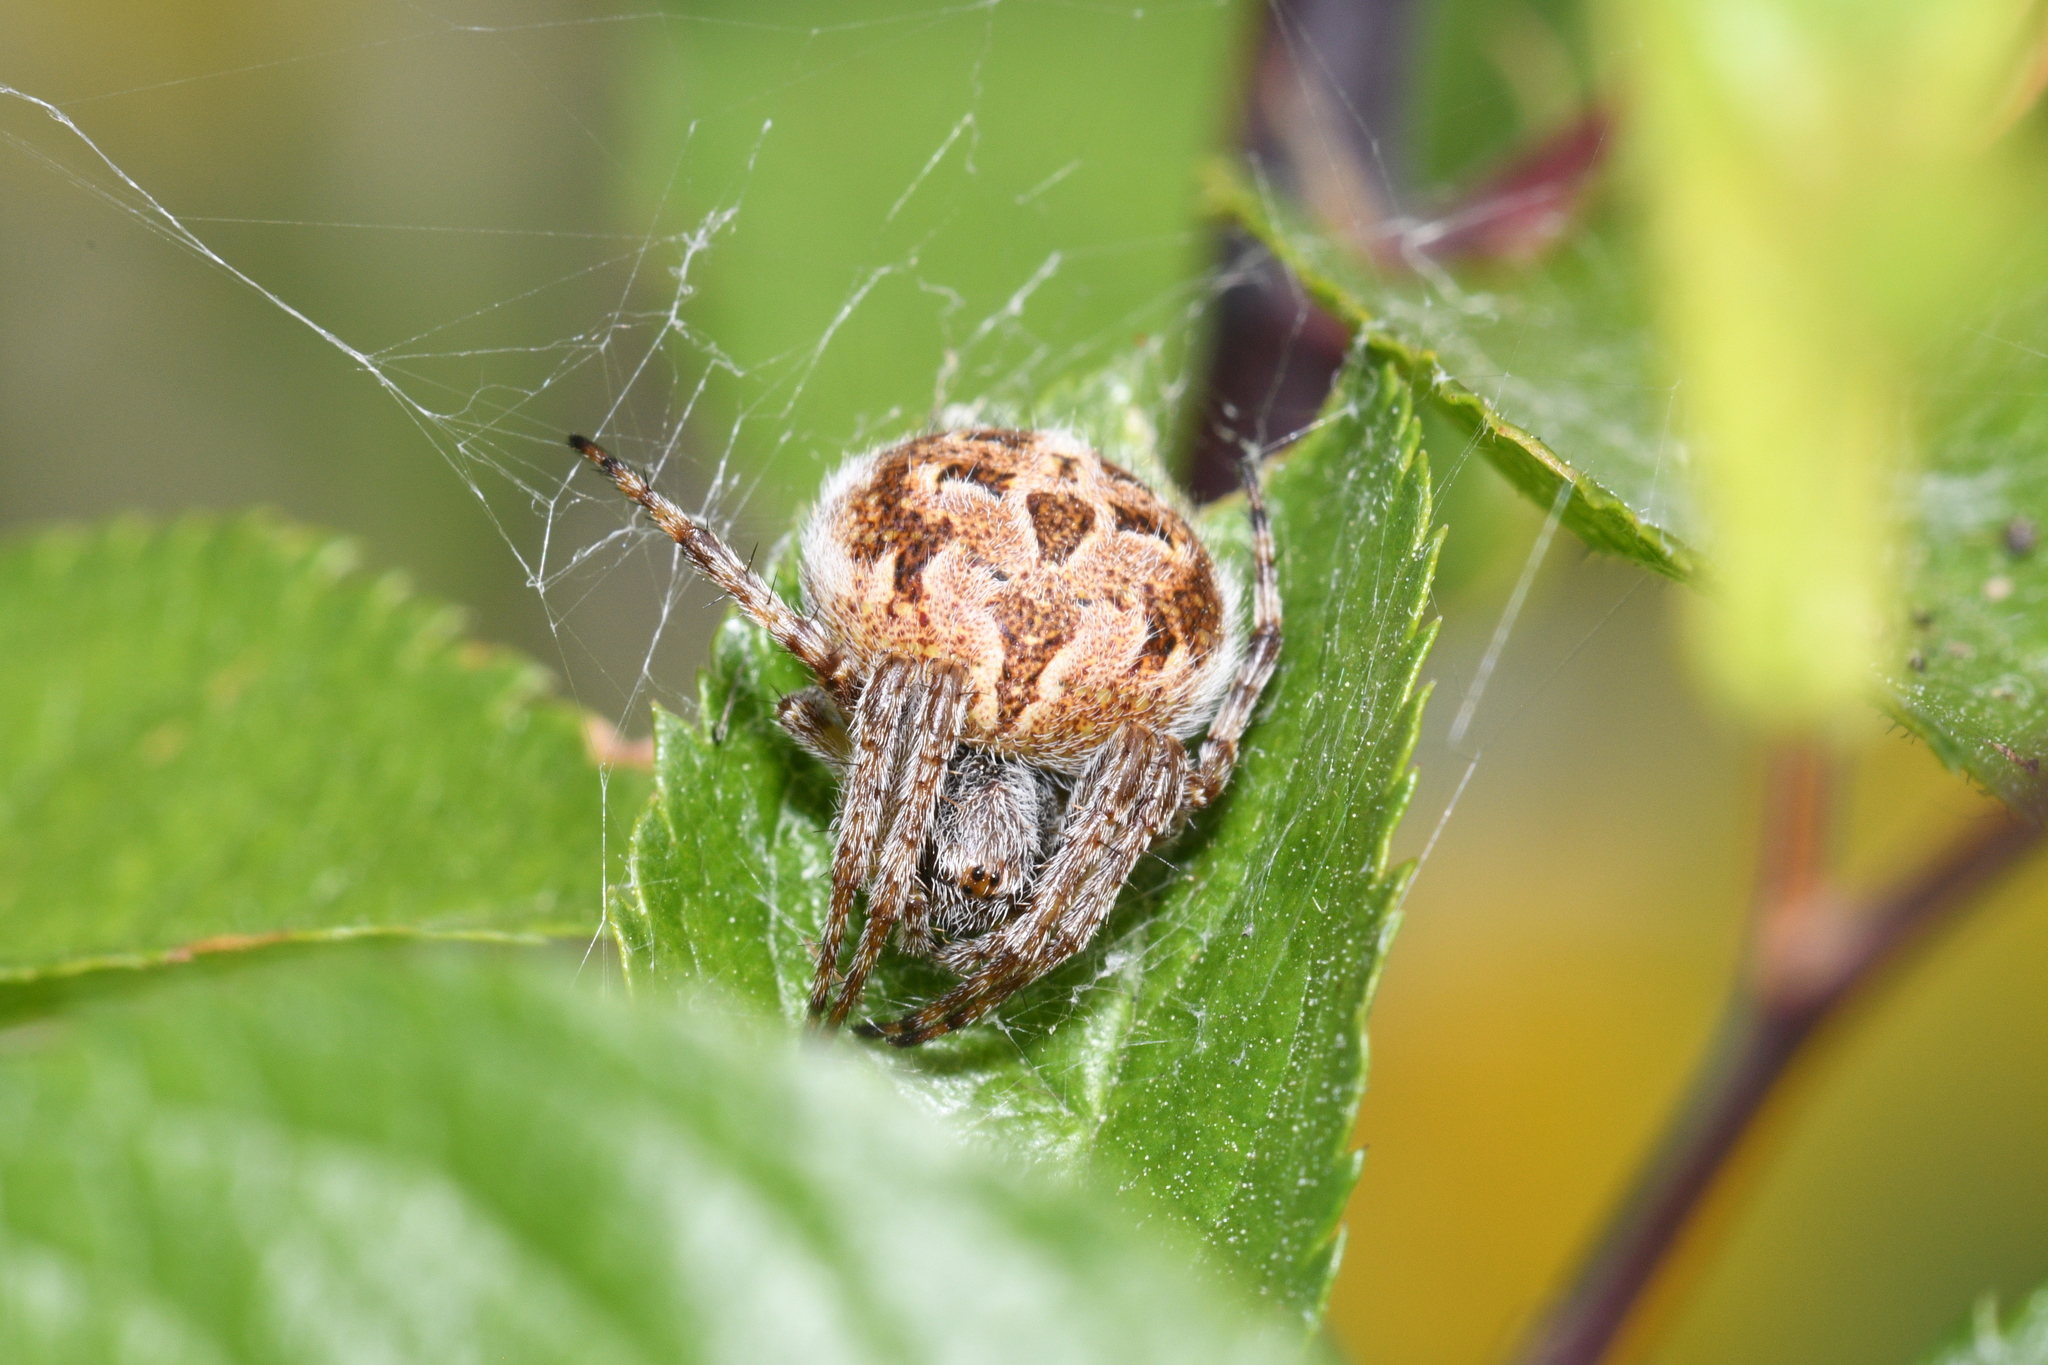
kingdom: Animalia
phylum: Arthropoda
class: Arachnida
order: Araneae
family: Araneidae
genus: Agalenatea
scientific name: Agalenatea redii
